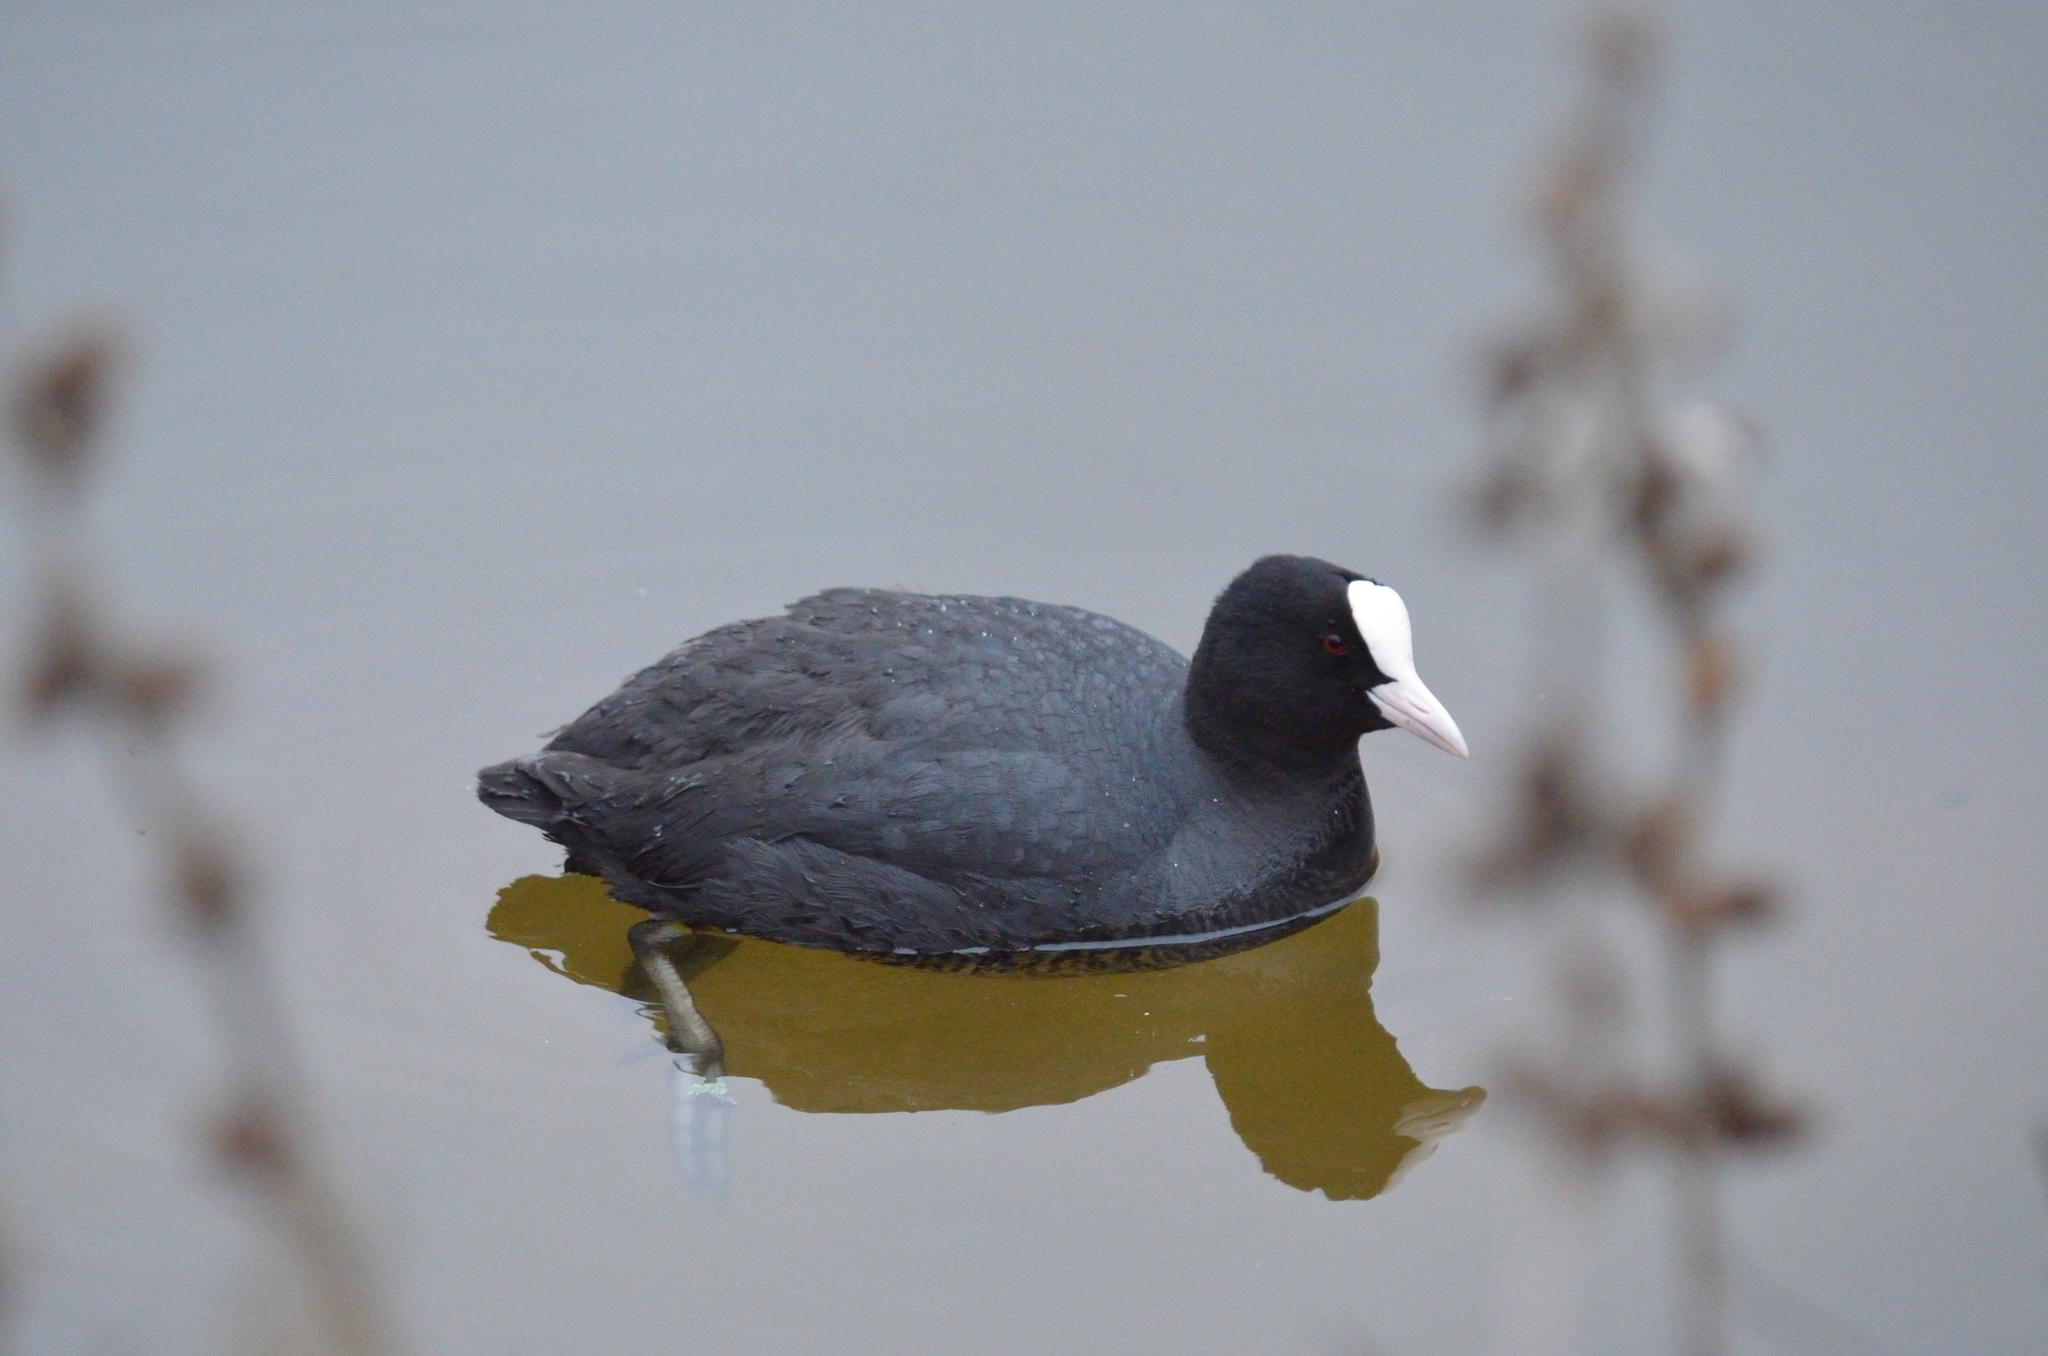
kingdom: Animalia
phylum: Chordata
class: Aves
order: Gruiformes
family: Rallidae
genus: Fulica
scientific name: Fulica atra
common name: Eurasian coot
